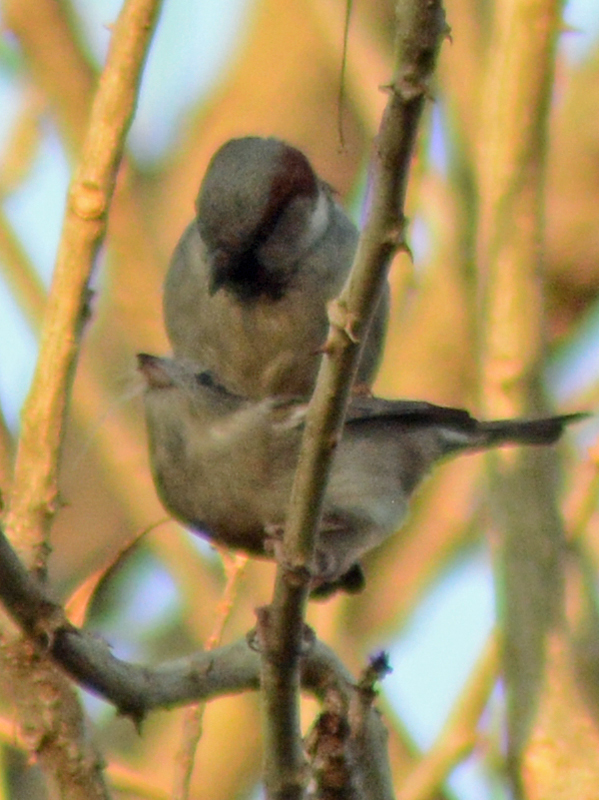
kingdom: Animalia
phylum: Chordata
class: Aves
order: Passeriformes
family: Passeridae
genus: Passer
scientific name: Passer domesticus
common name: House sparrow
